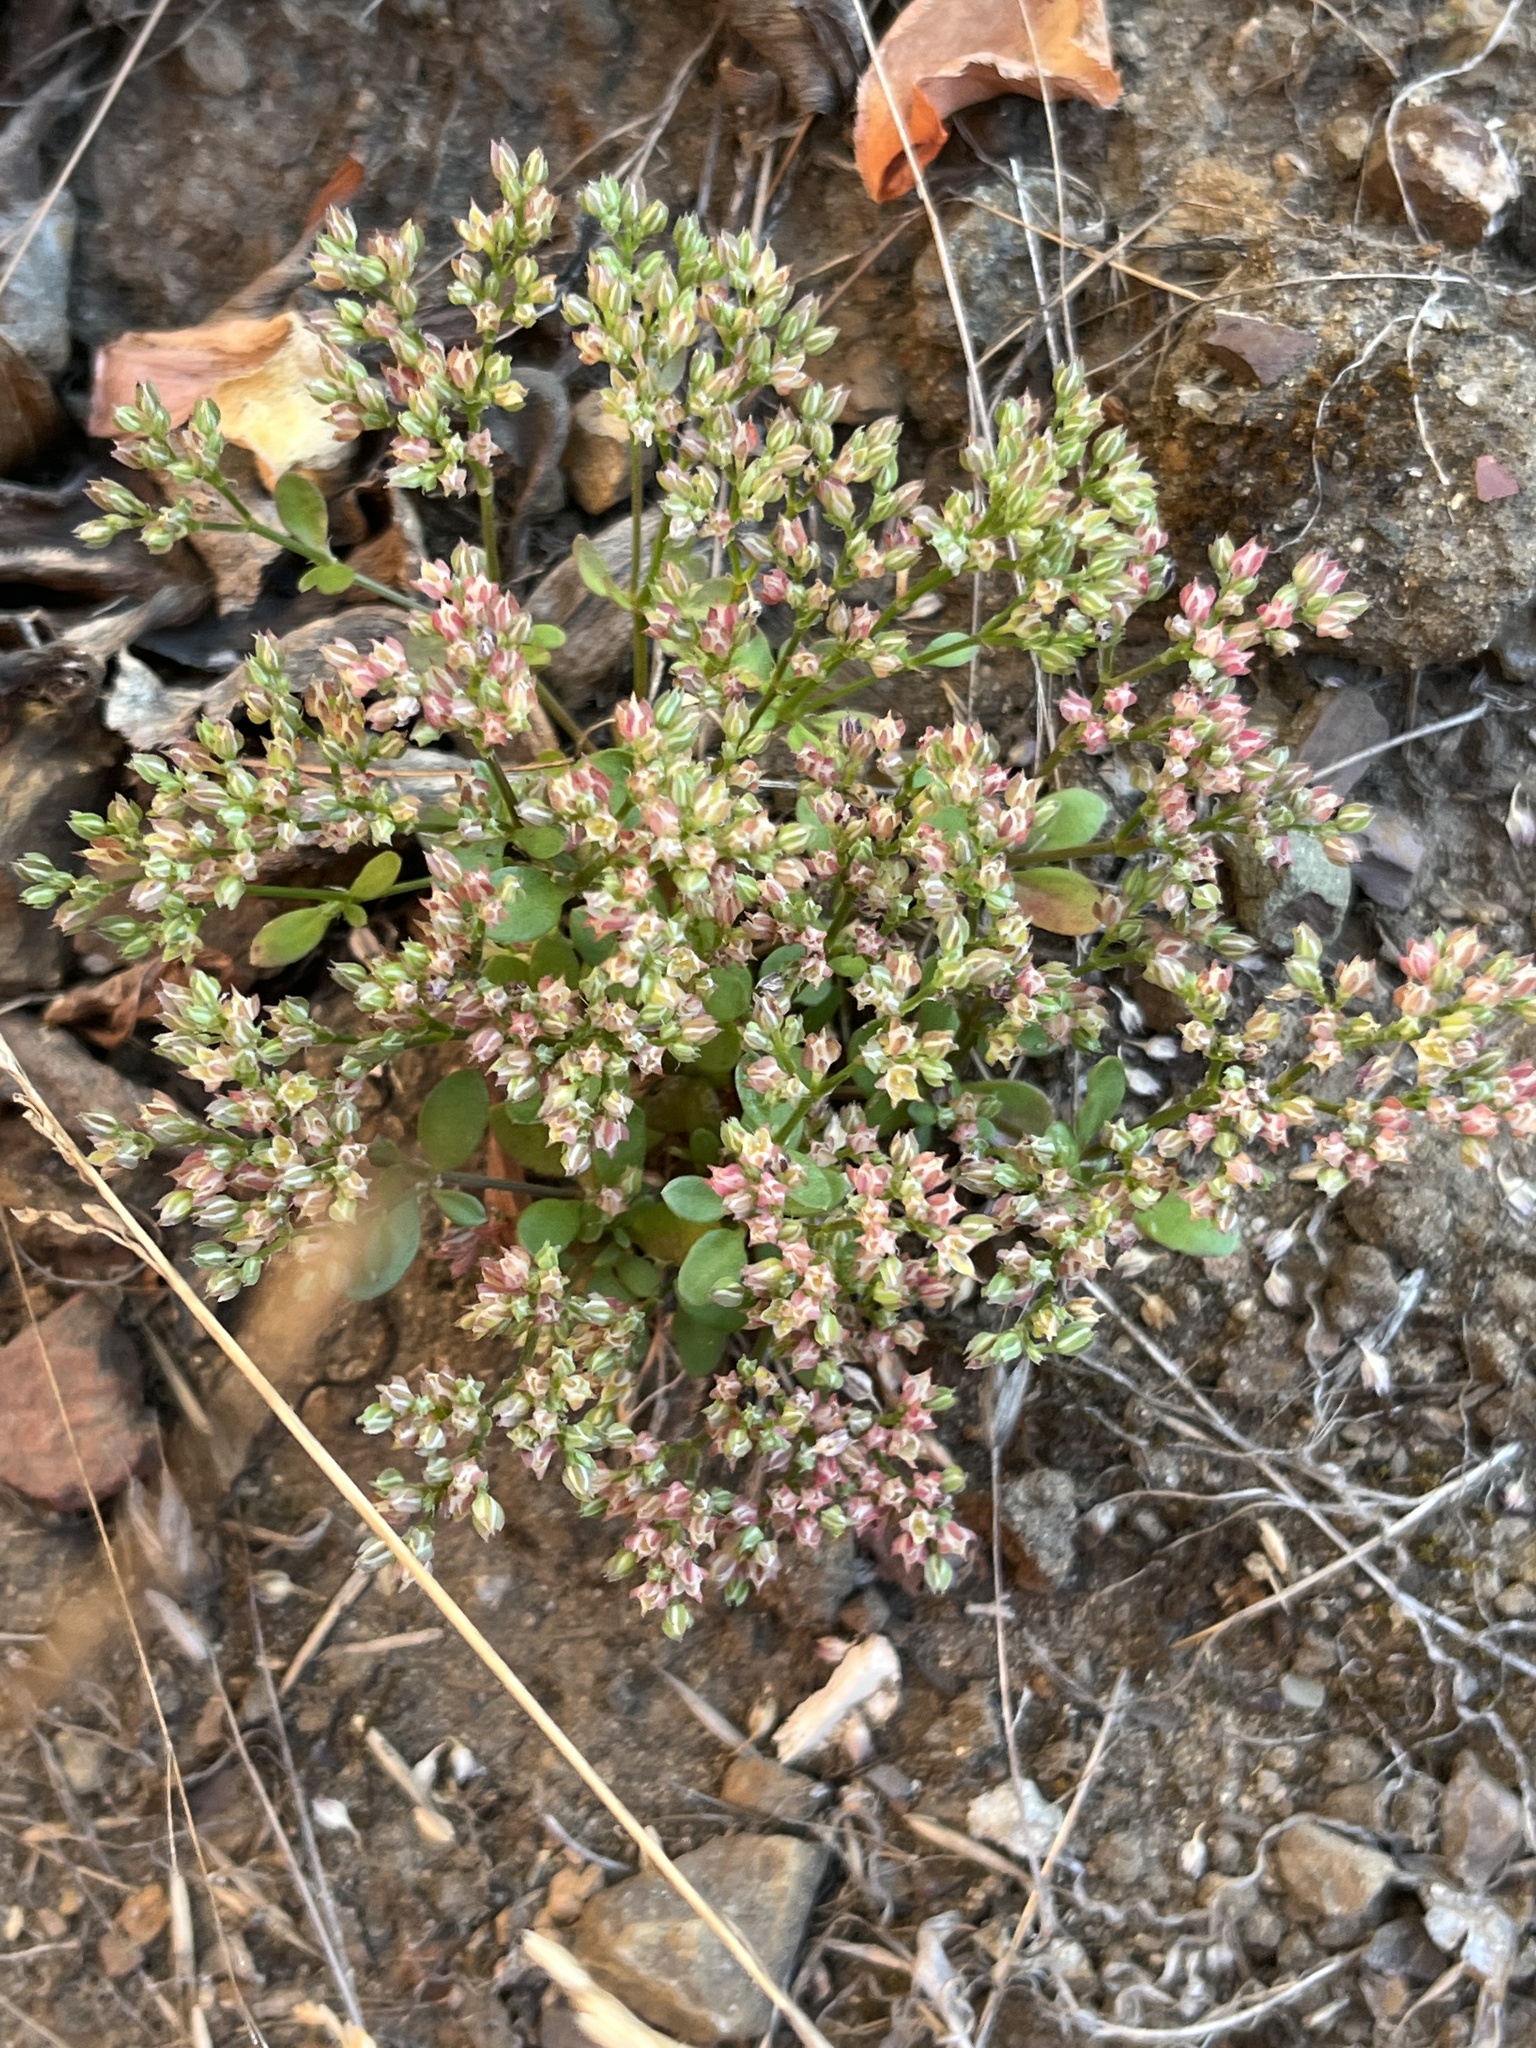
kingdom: Plantae
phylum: Tracheophyta
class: Magnoliopsida
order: Caryophyllales
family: Caryophyllaceae
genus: Polycarpon
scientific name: Polycarpon tetraphyllum
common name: Four-leaved all-seed
